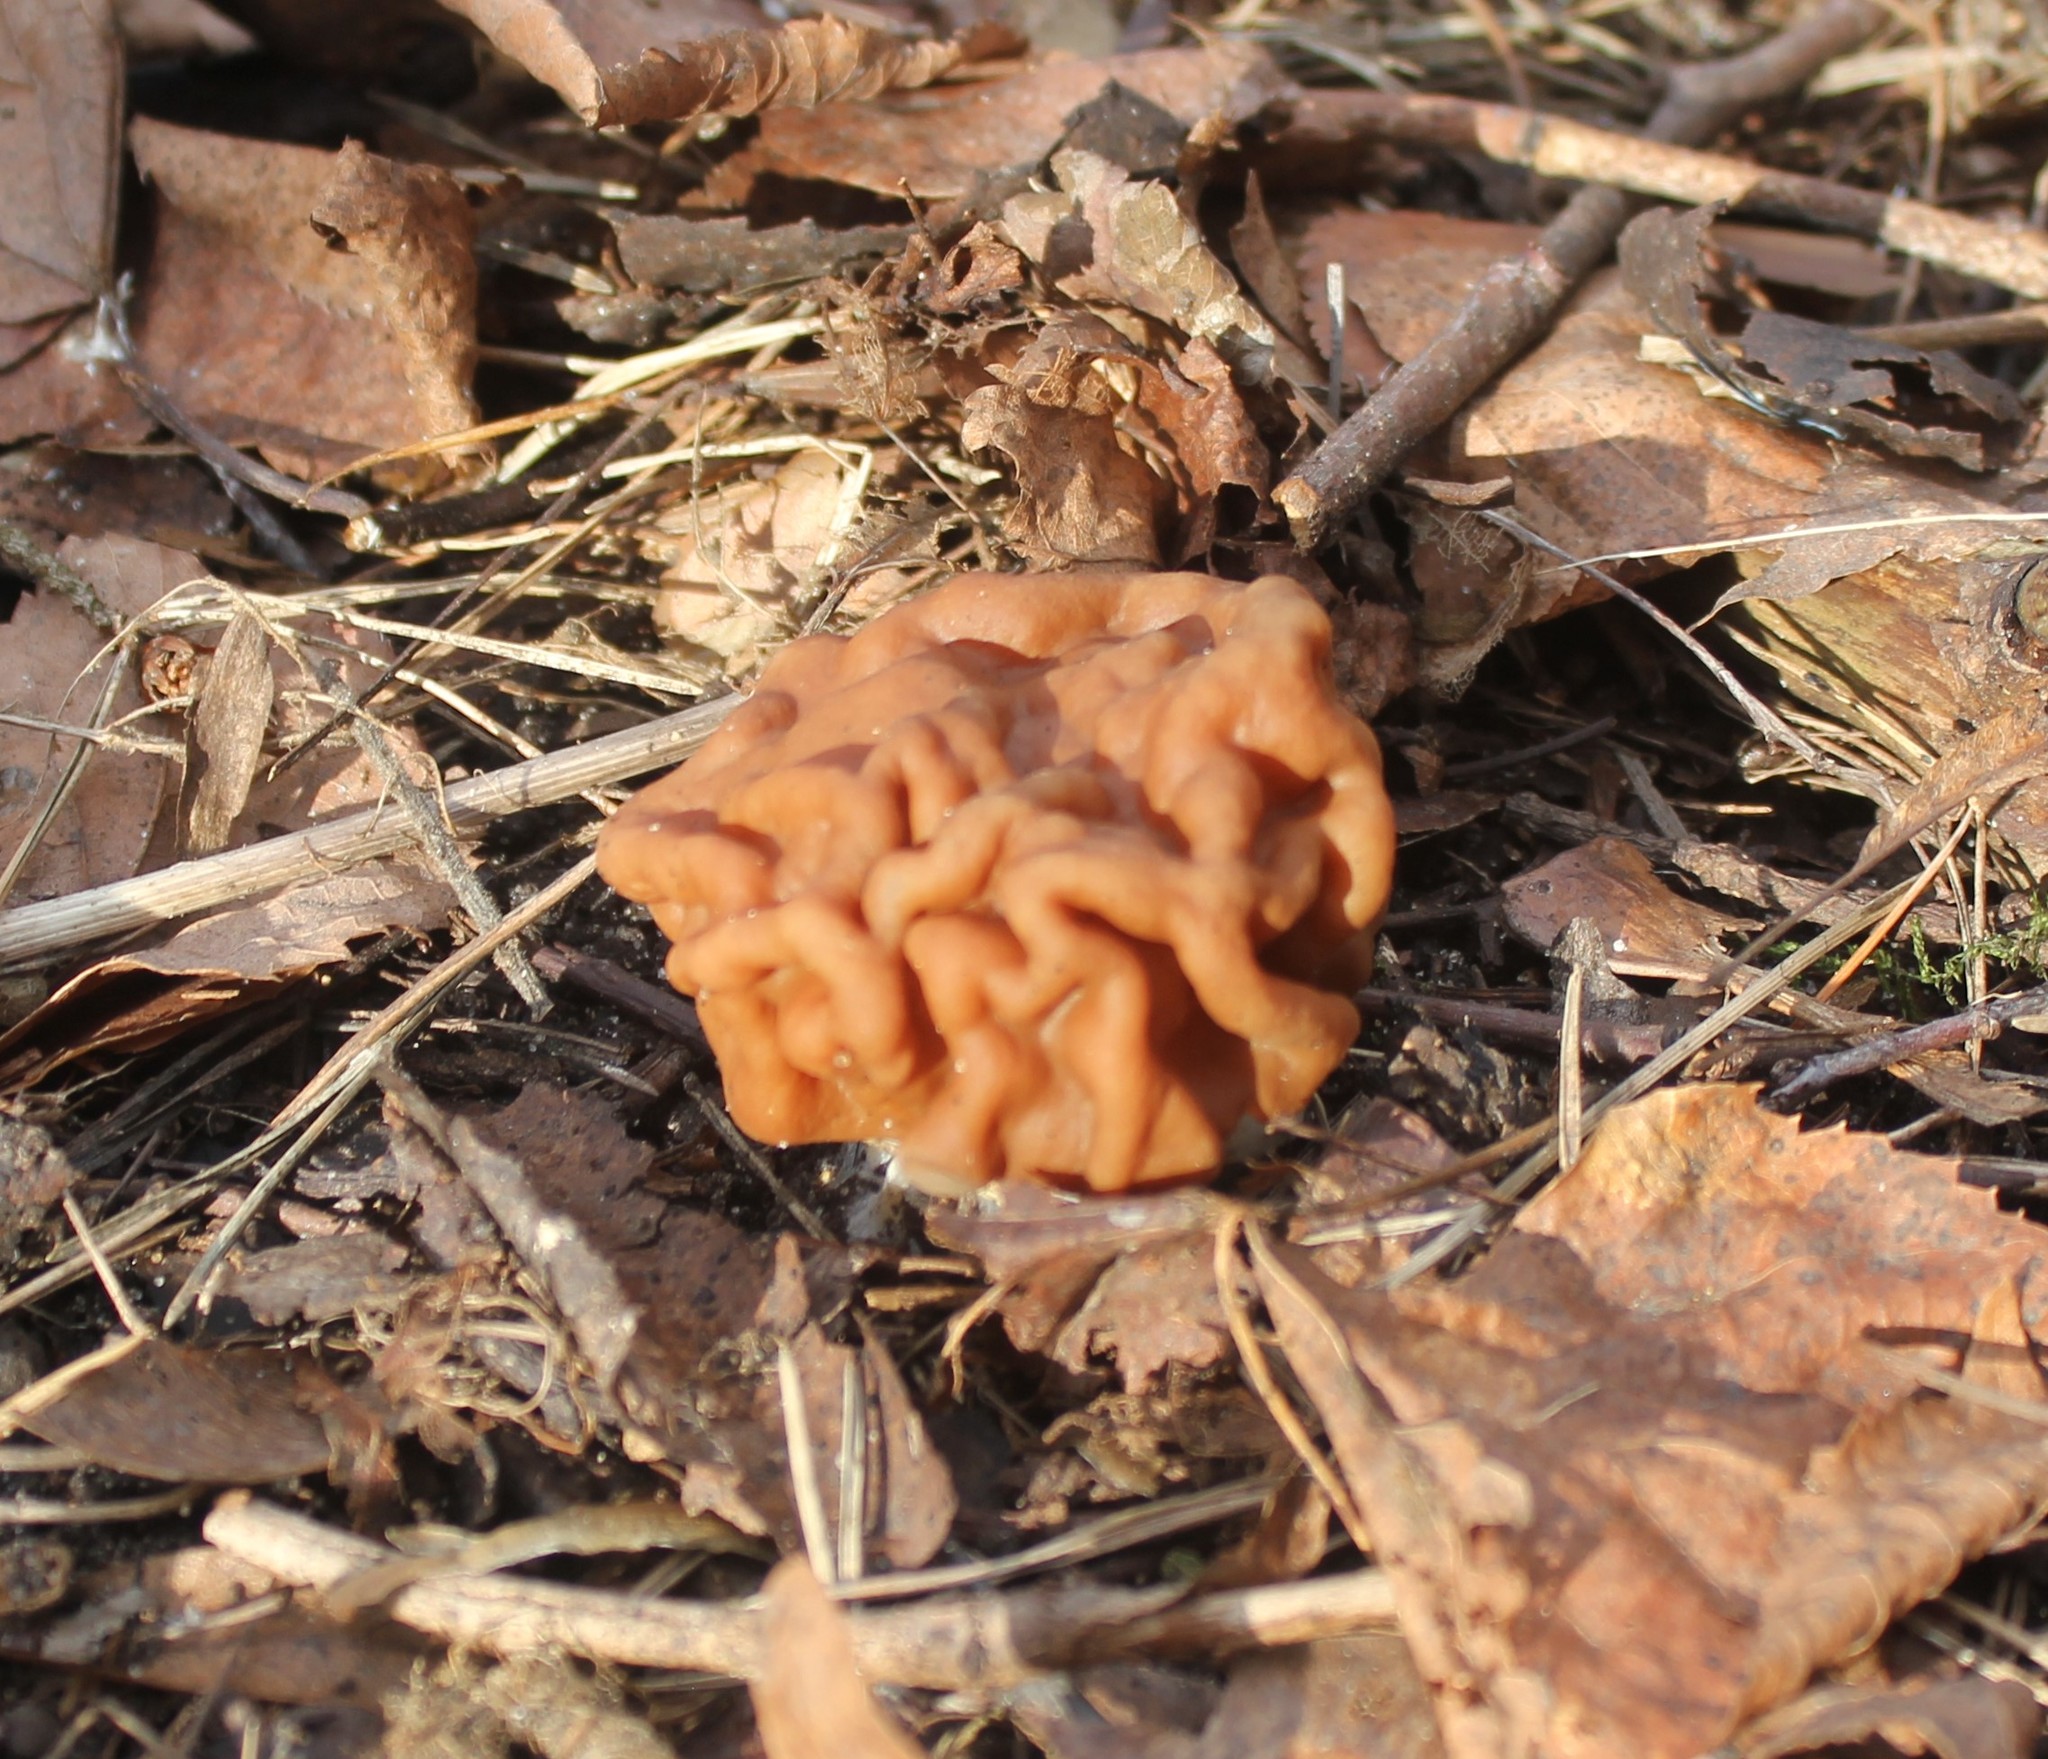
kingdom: Fungi
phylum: Ascomycota
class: Pezizomycetes
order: Pezizales
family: Discinaceae
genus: Gyromitra
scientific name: Gyromitra gigas
